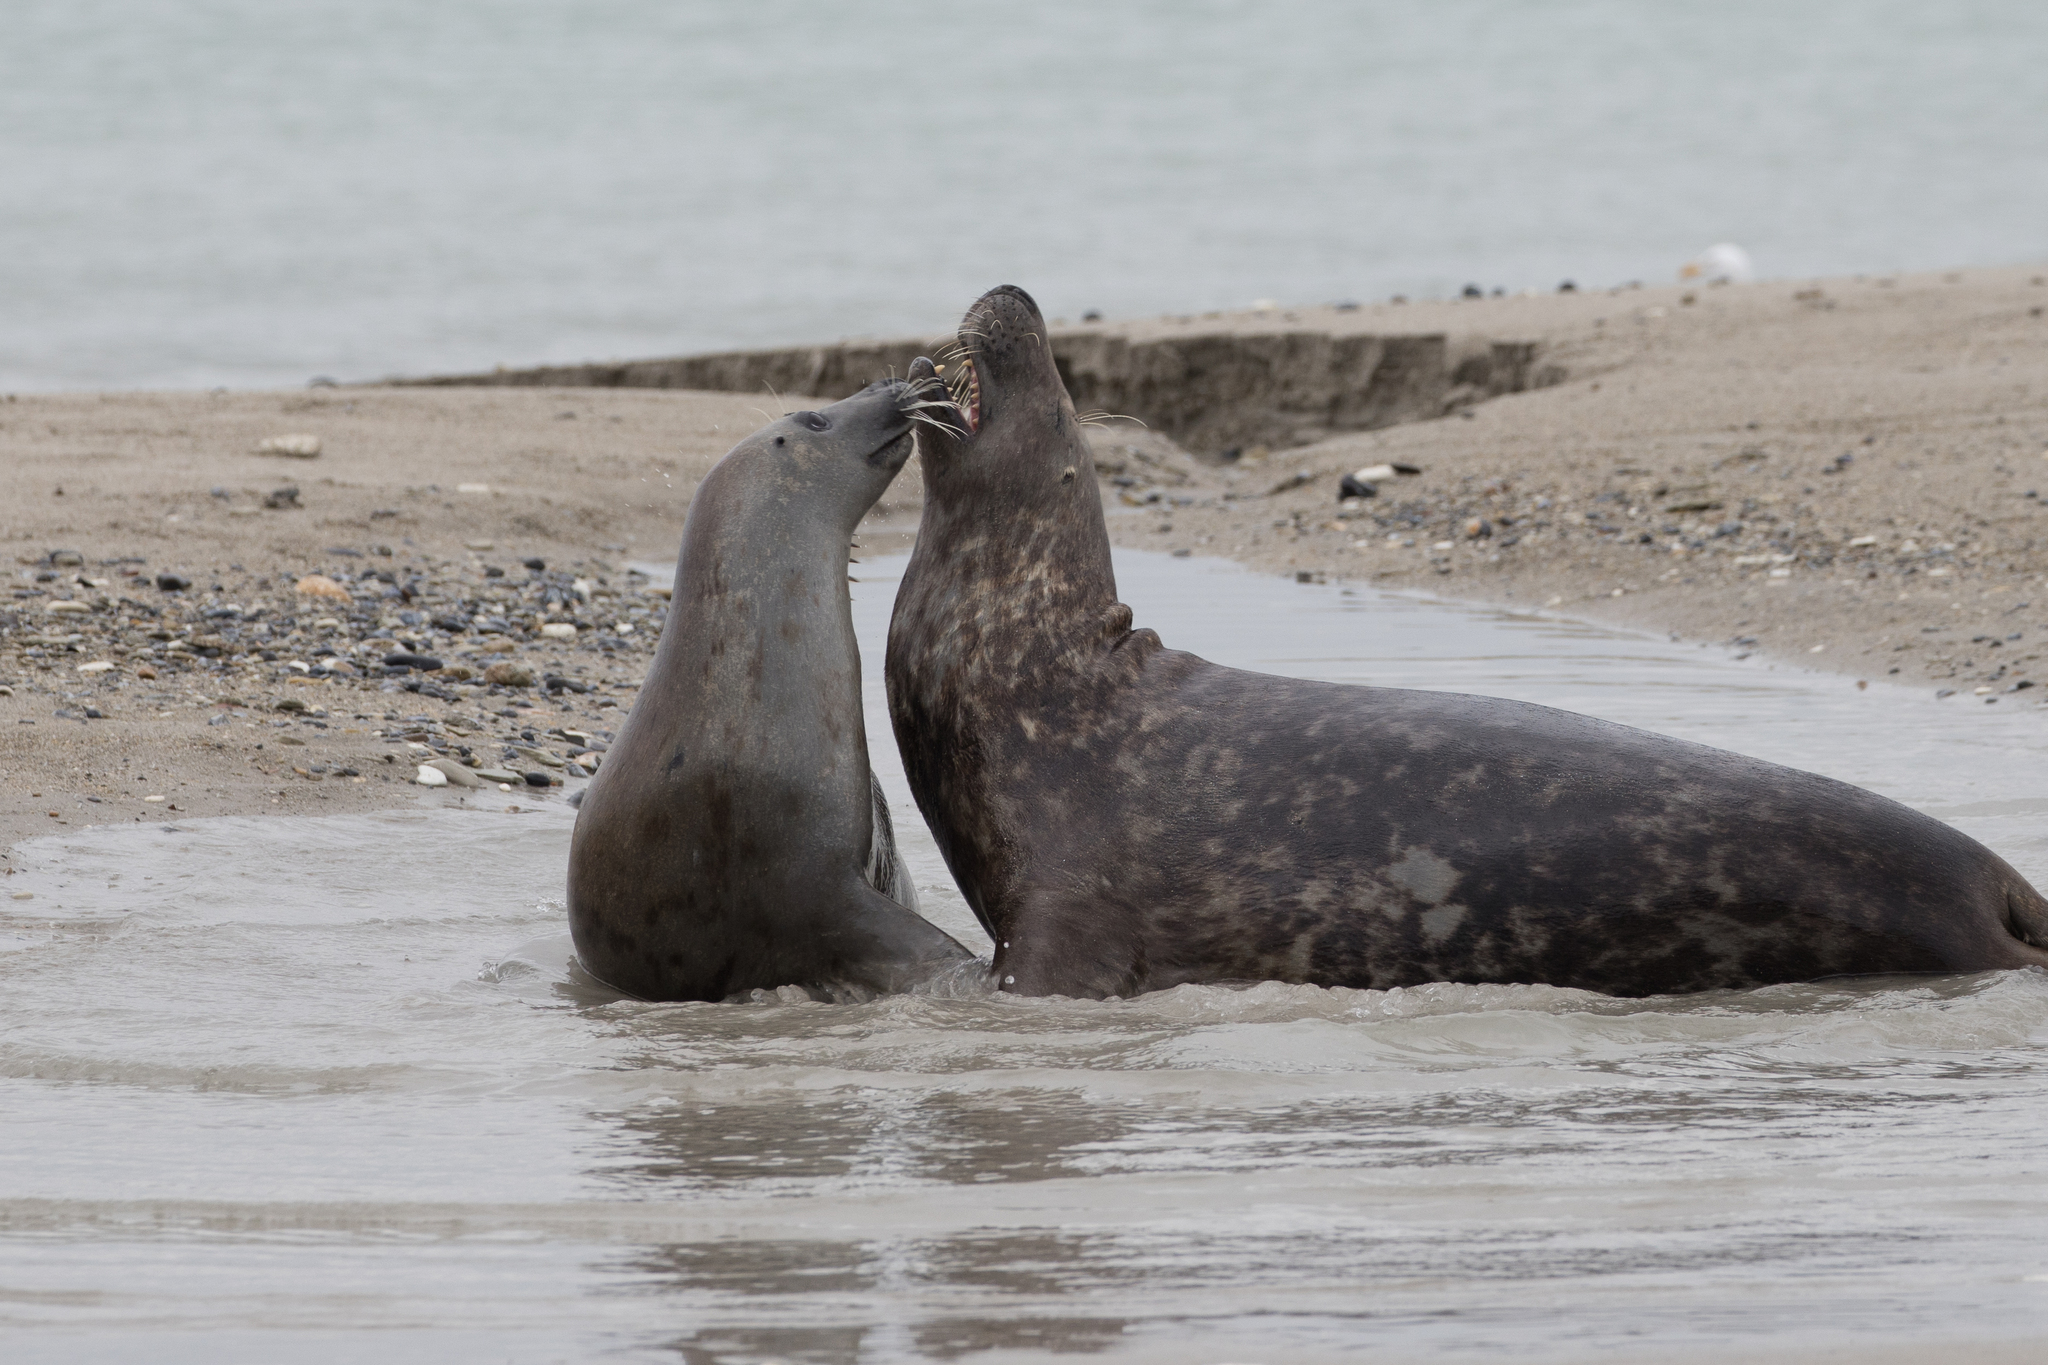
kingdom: Animalia
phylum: Chordata
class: Mammalia
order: Carnivora
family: Phocidae
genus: Halichoerus
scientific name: Halichoerus grypus
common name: Grey seal
